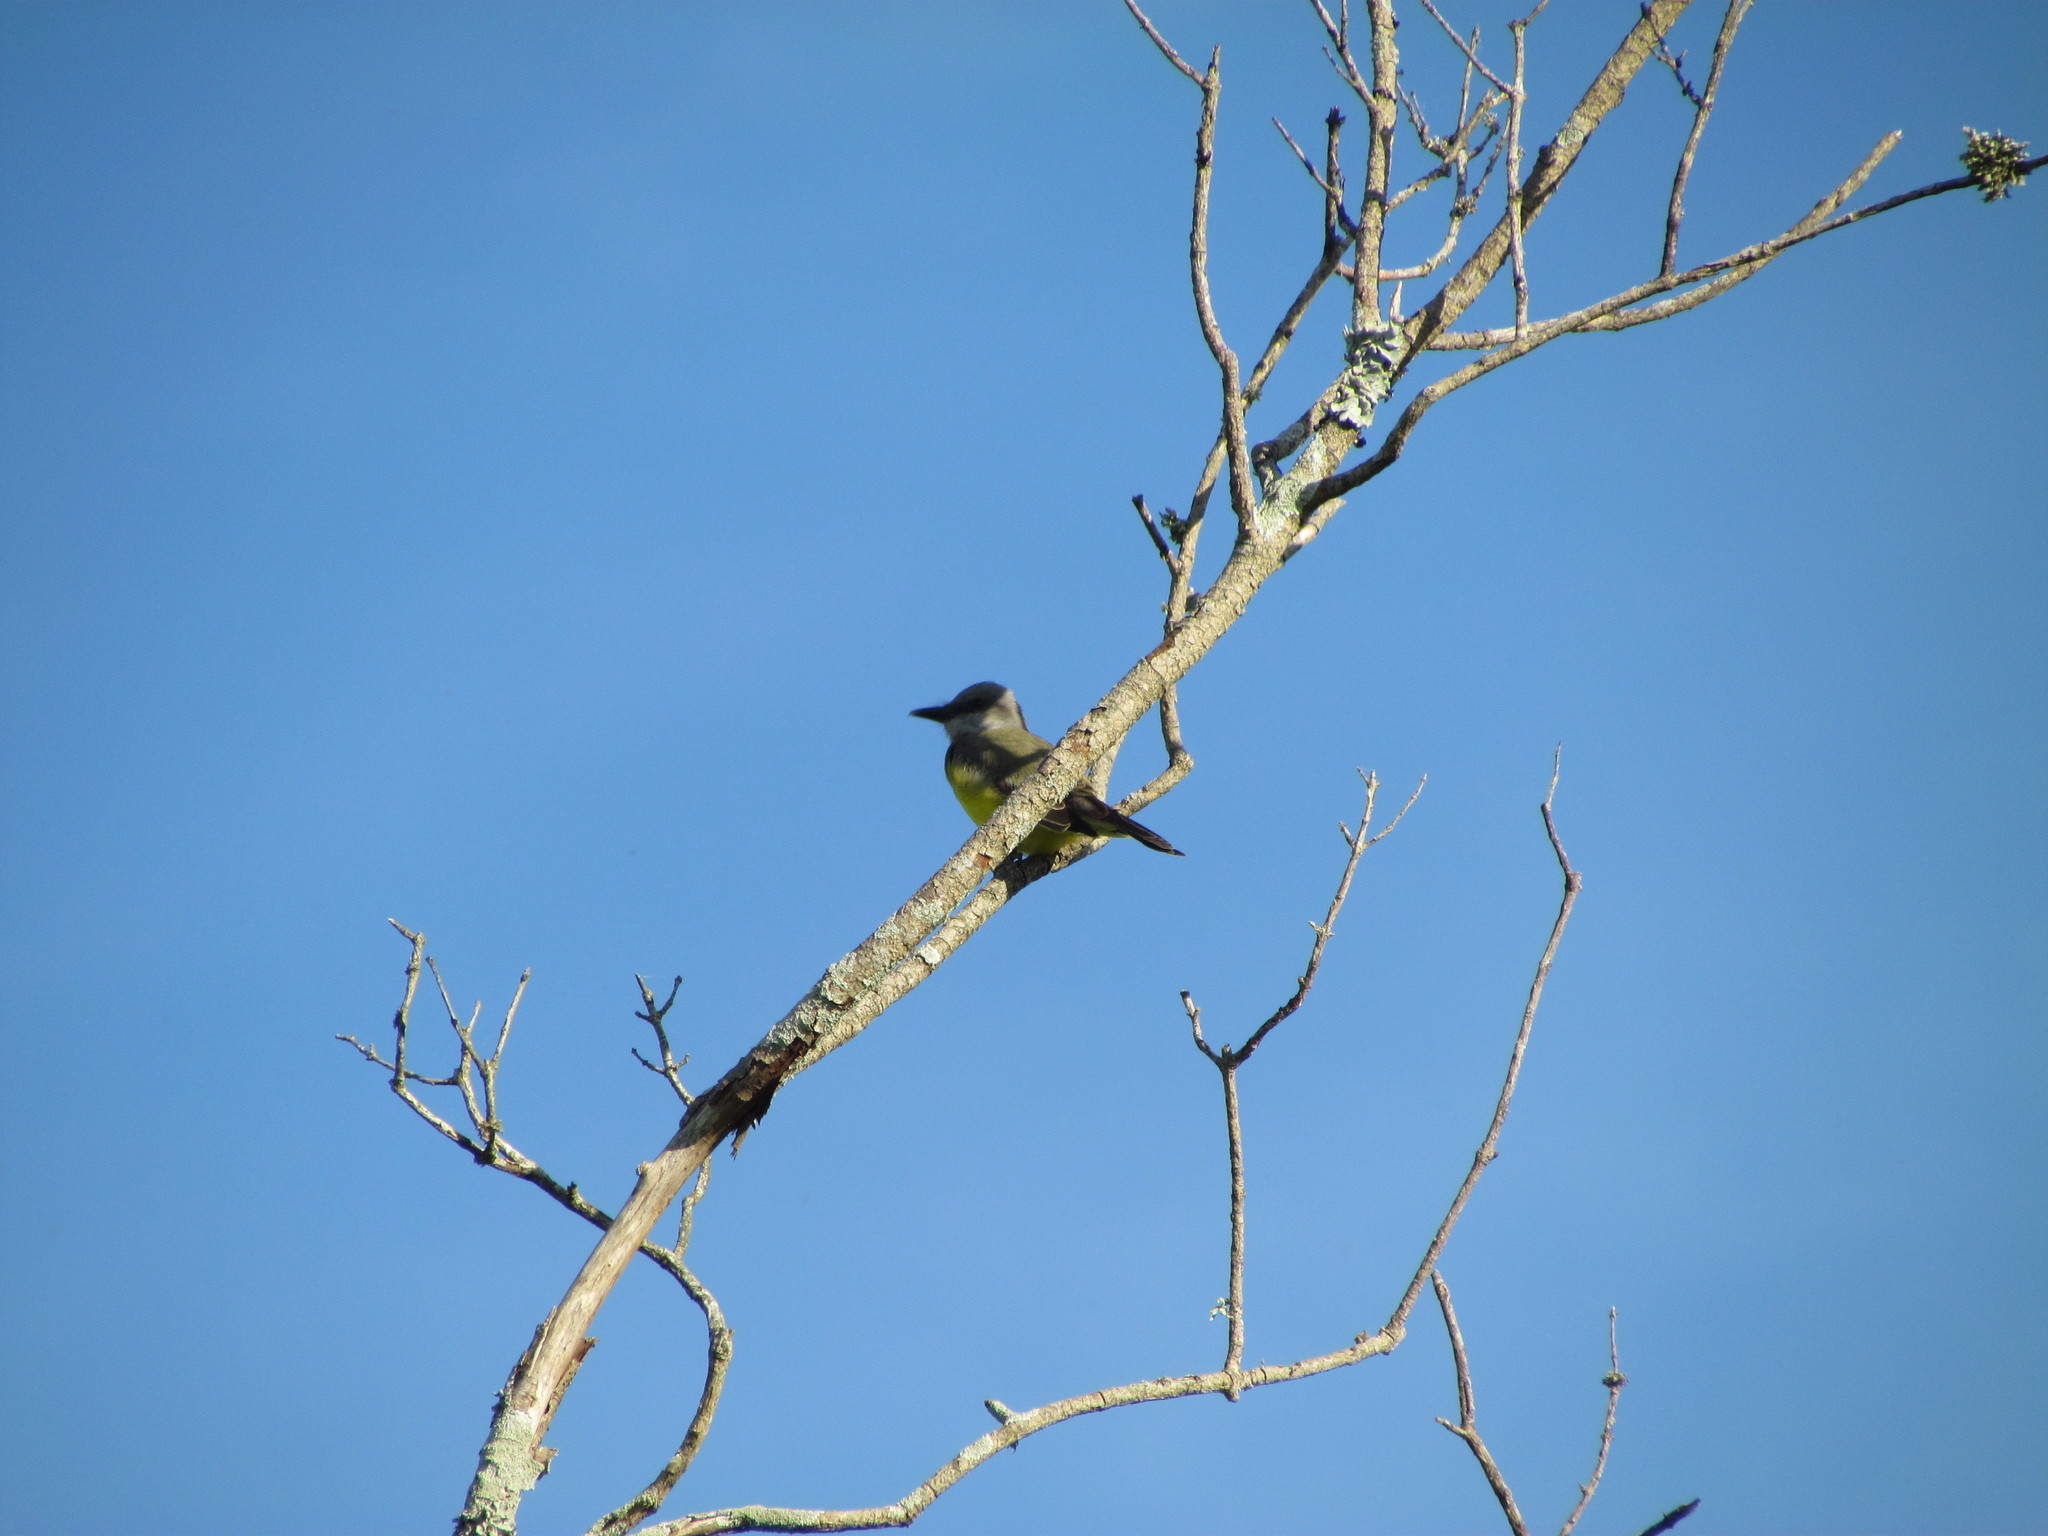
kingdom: Animalia
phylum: Chordata
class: Aves
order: Passeriformes
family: Tyrannidae
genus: Tyrannus
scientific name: Tyrannus melancholicus
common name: Tropical kingbird
